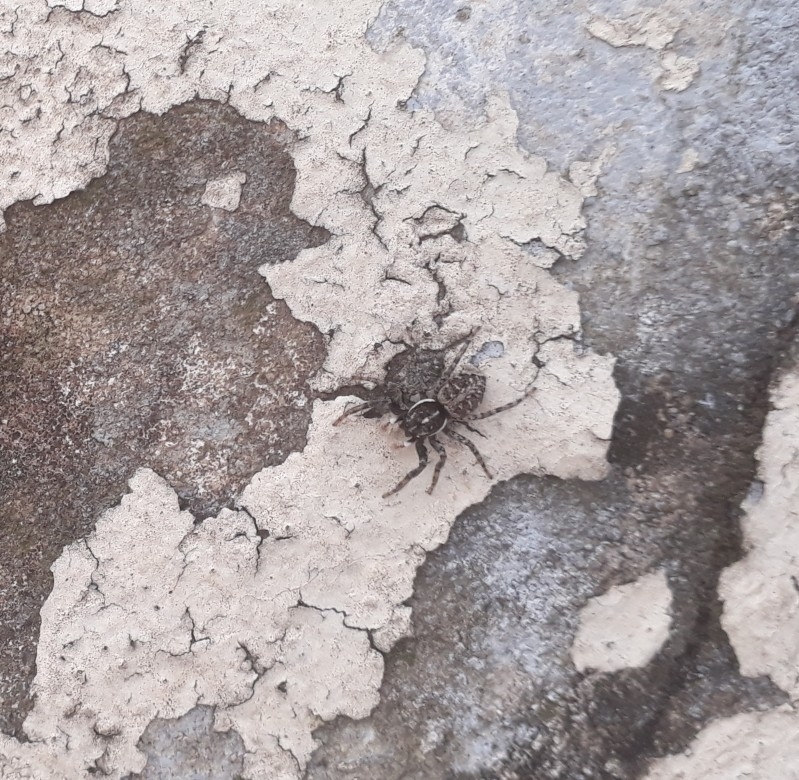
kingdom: Animalia
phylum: Arthropoda
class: Arachnida
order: Araneae
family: Salticidae
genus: Menemerus
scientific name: Menemerus semilimbatus
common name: Jumping spider
